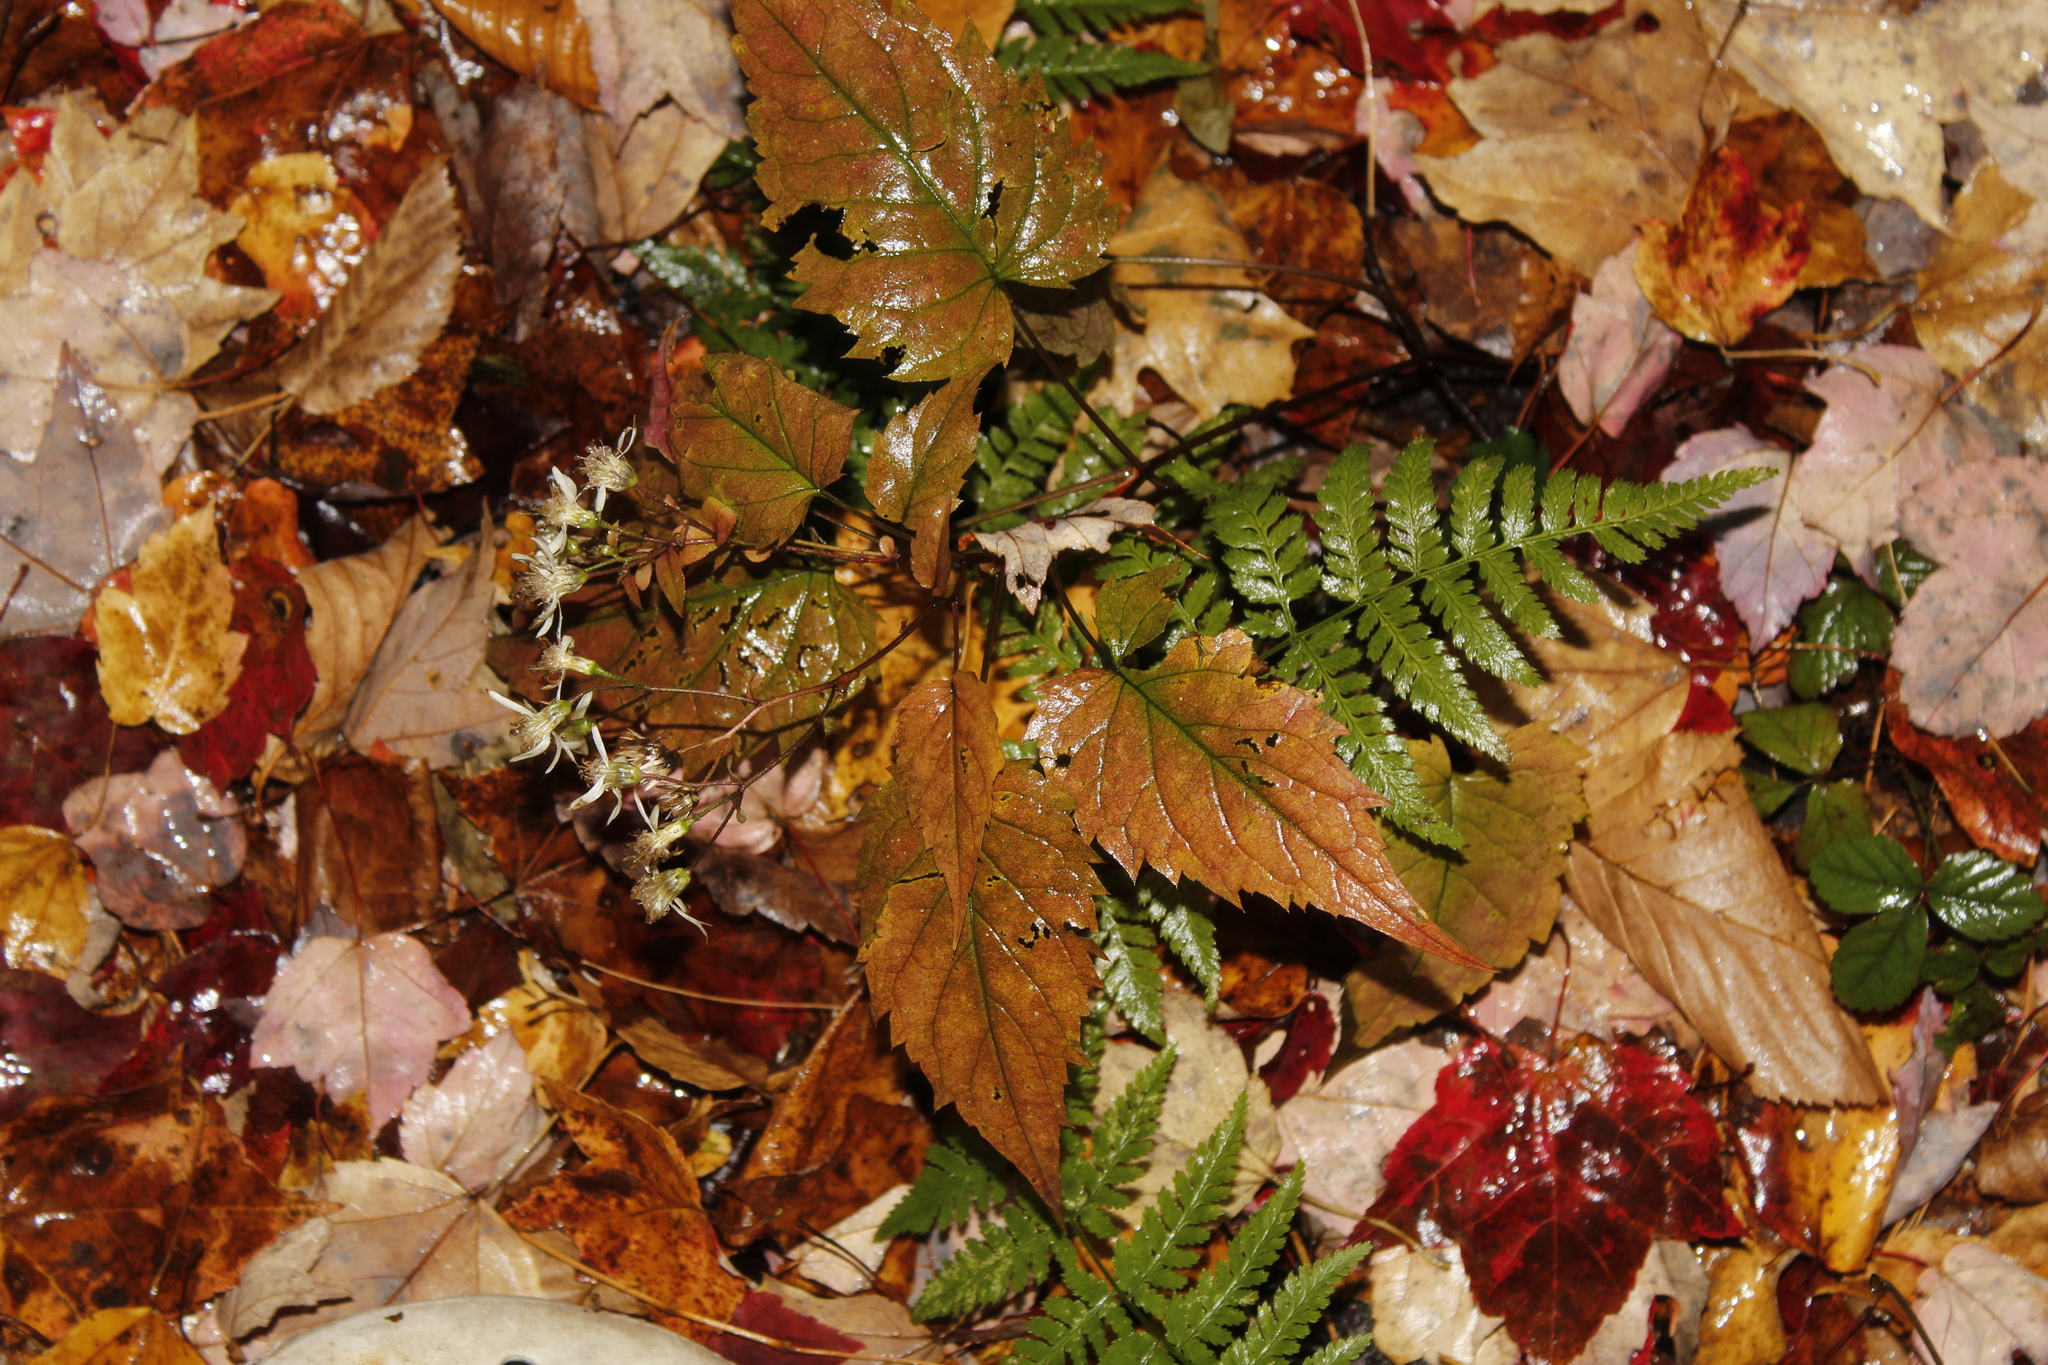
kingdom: Plantae
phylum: Tracheophyta
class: Magnoliopsida
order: Asterales
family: Asteraceae
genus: Eurybia
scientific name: Eurybia divaricata
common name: White wood aster
